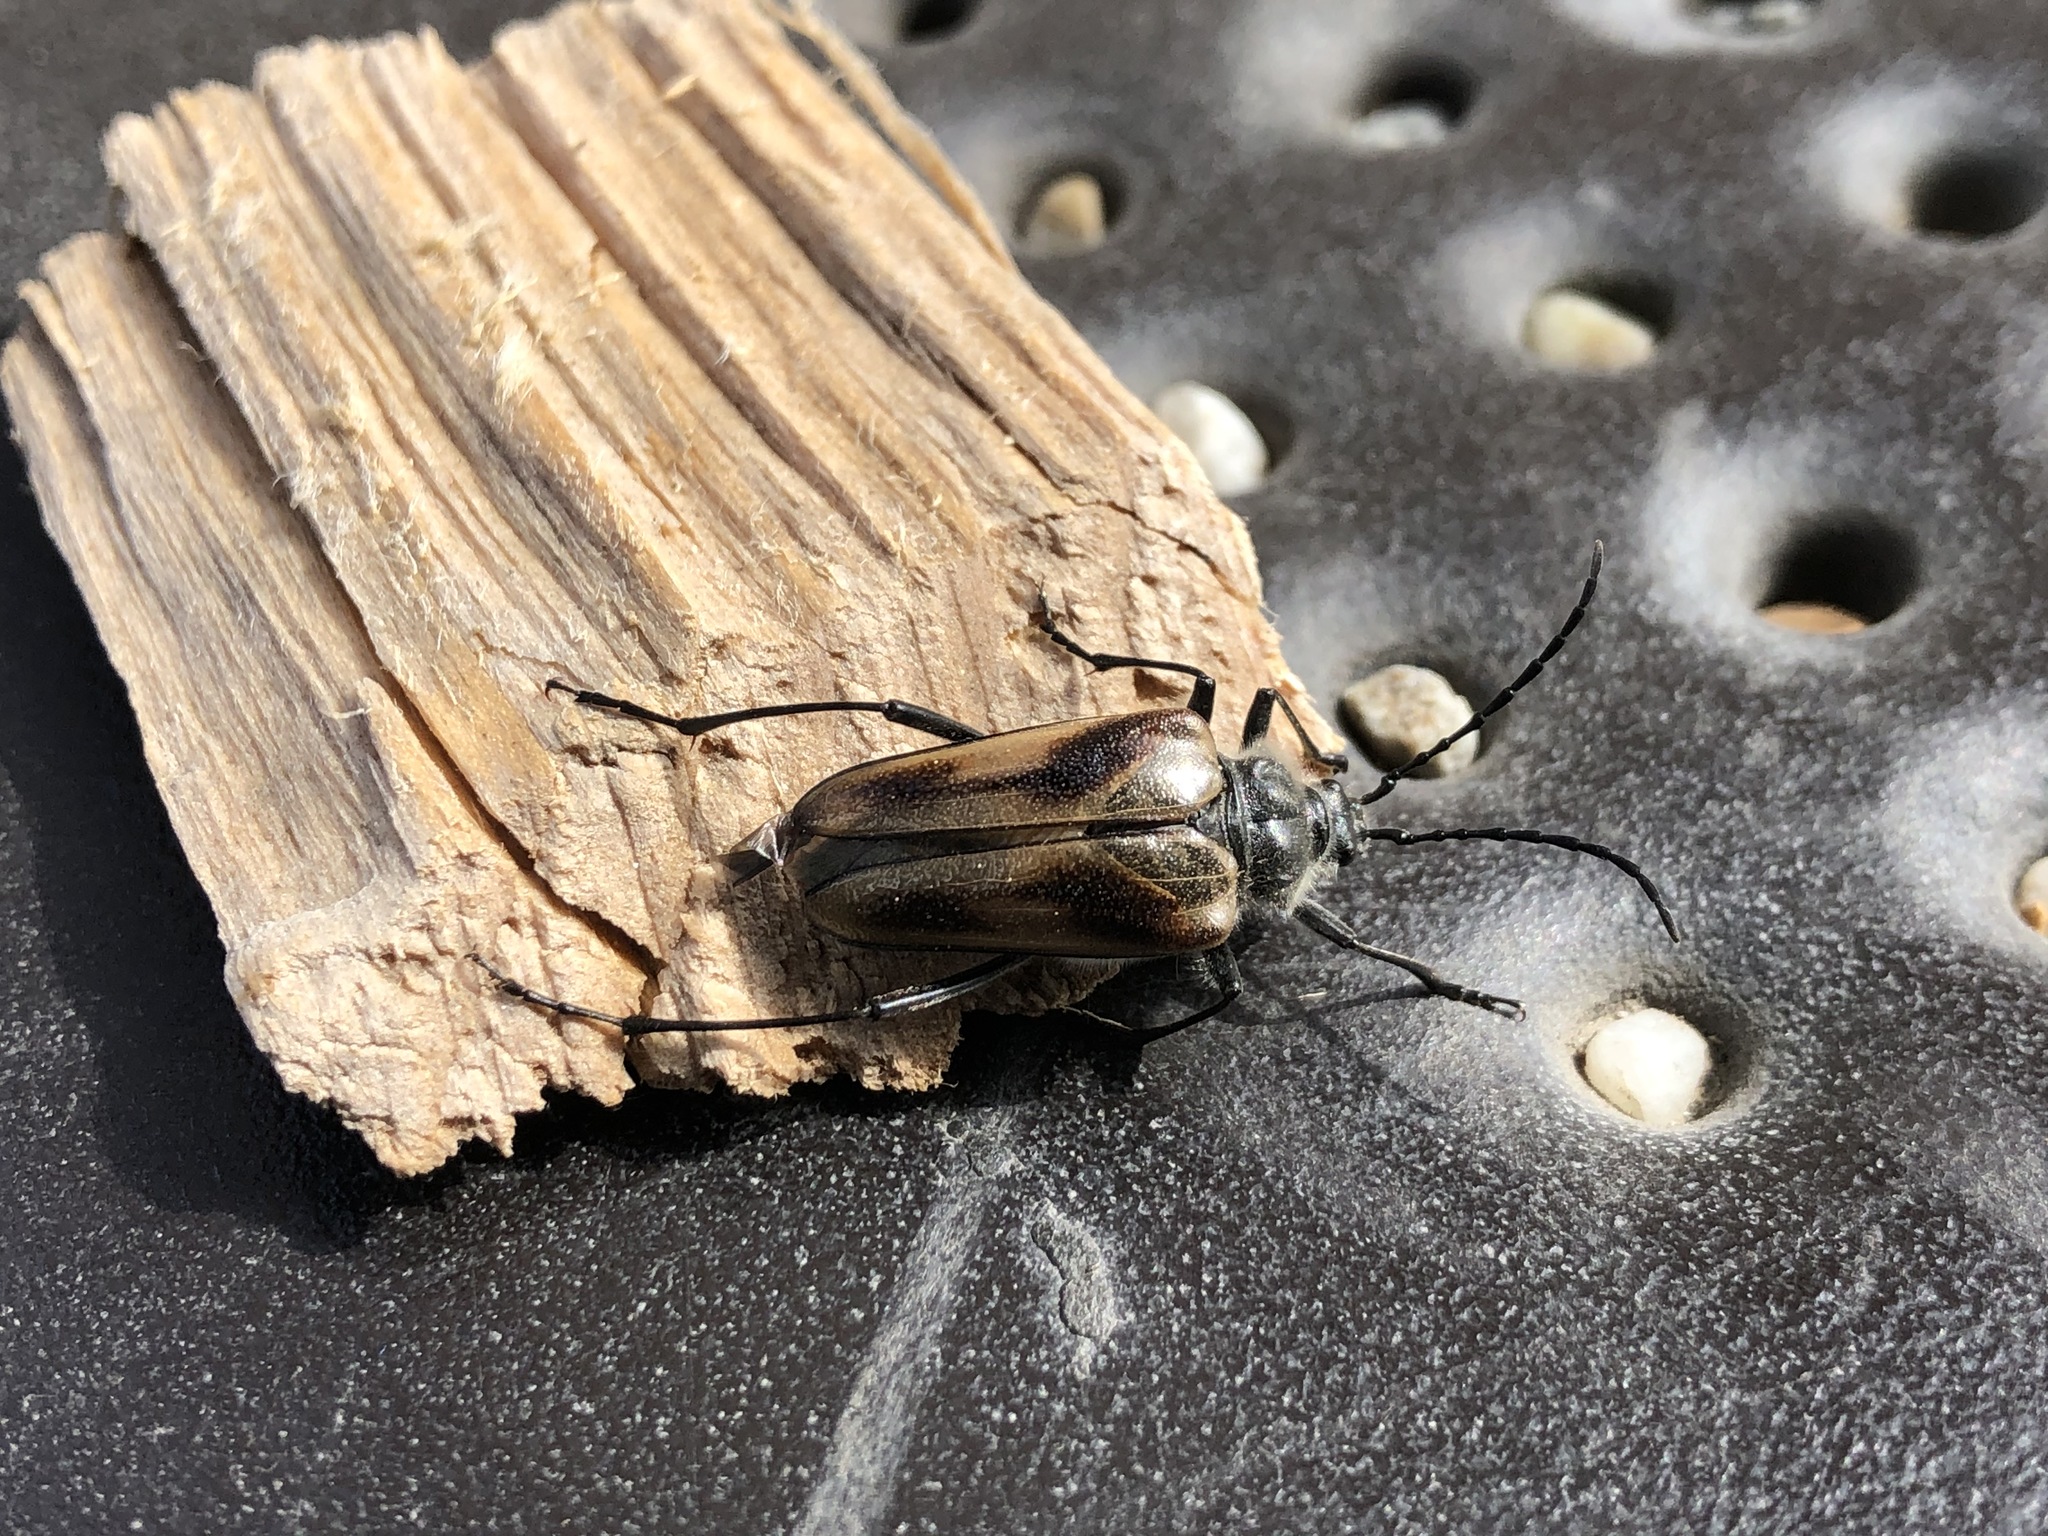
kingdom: Animalia
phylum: Arthropoda
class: Insecta
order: Coleoptera
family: Cerambycidae
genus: Pachyta
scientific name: Pachyta lamed
